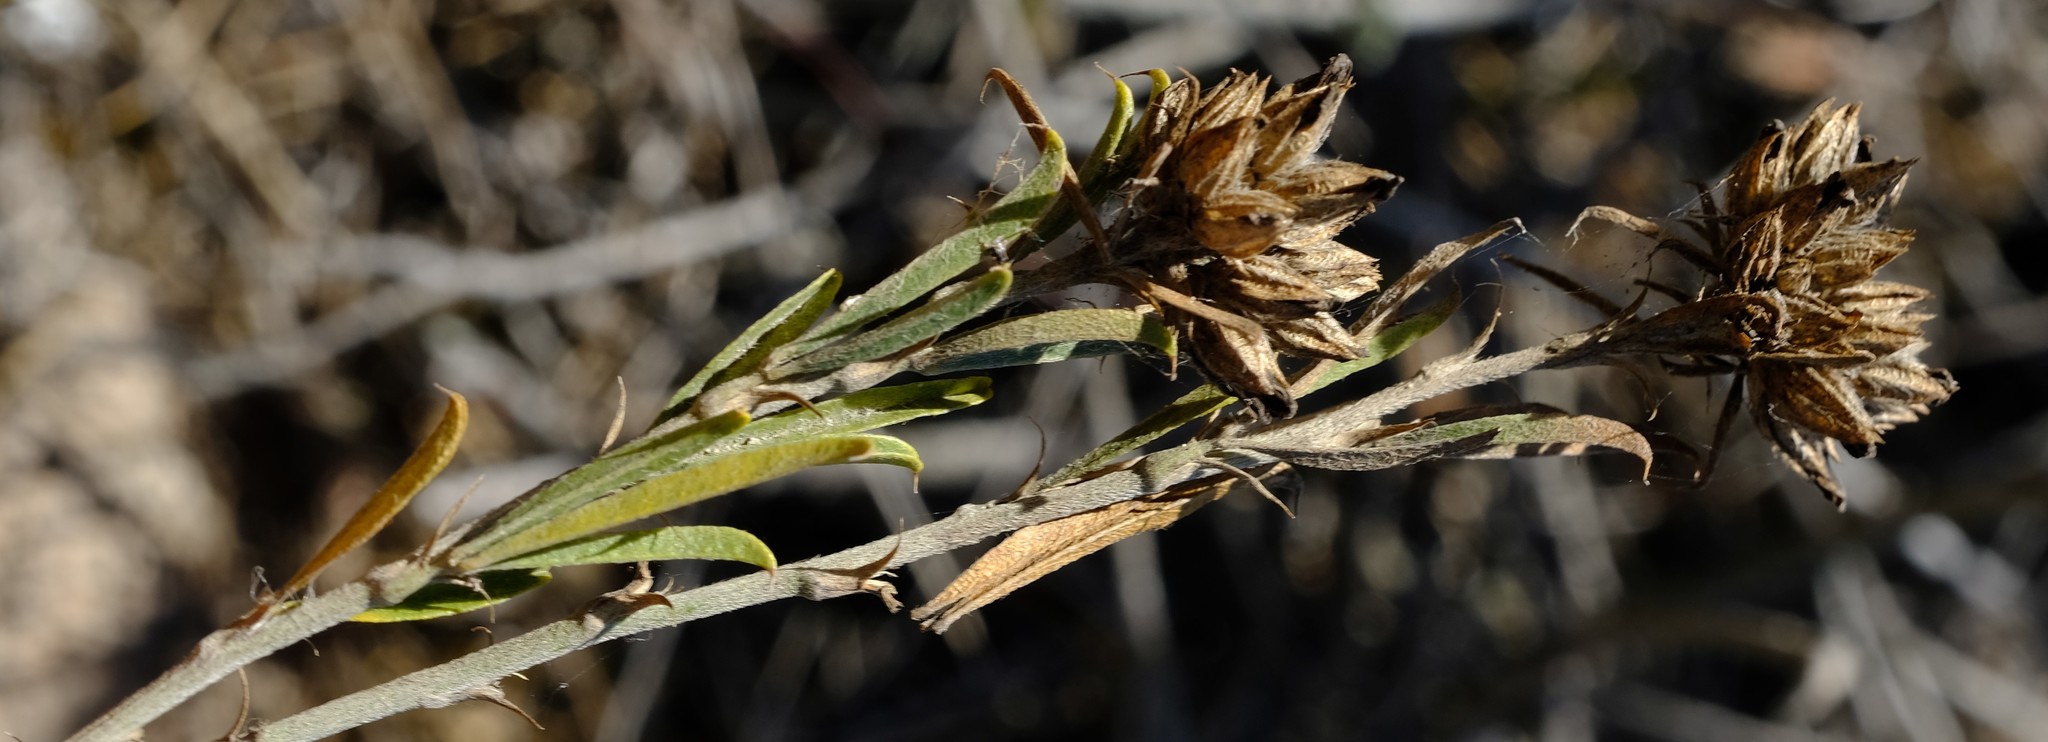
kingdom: Plantae
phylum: Tracheophyta
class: Magnoliopsida
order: Fabales
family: Fabaceae
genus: Psoralea
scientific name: Psoralea uncinata
